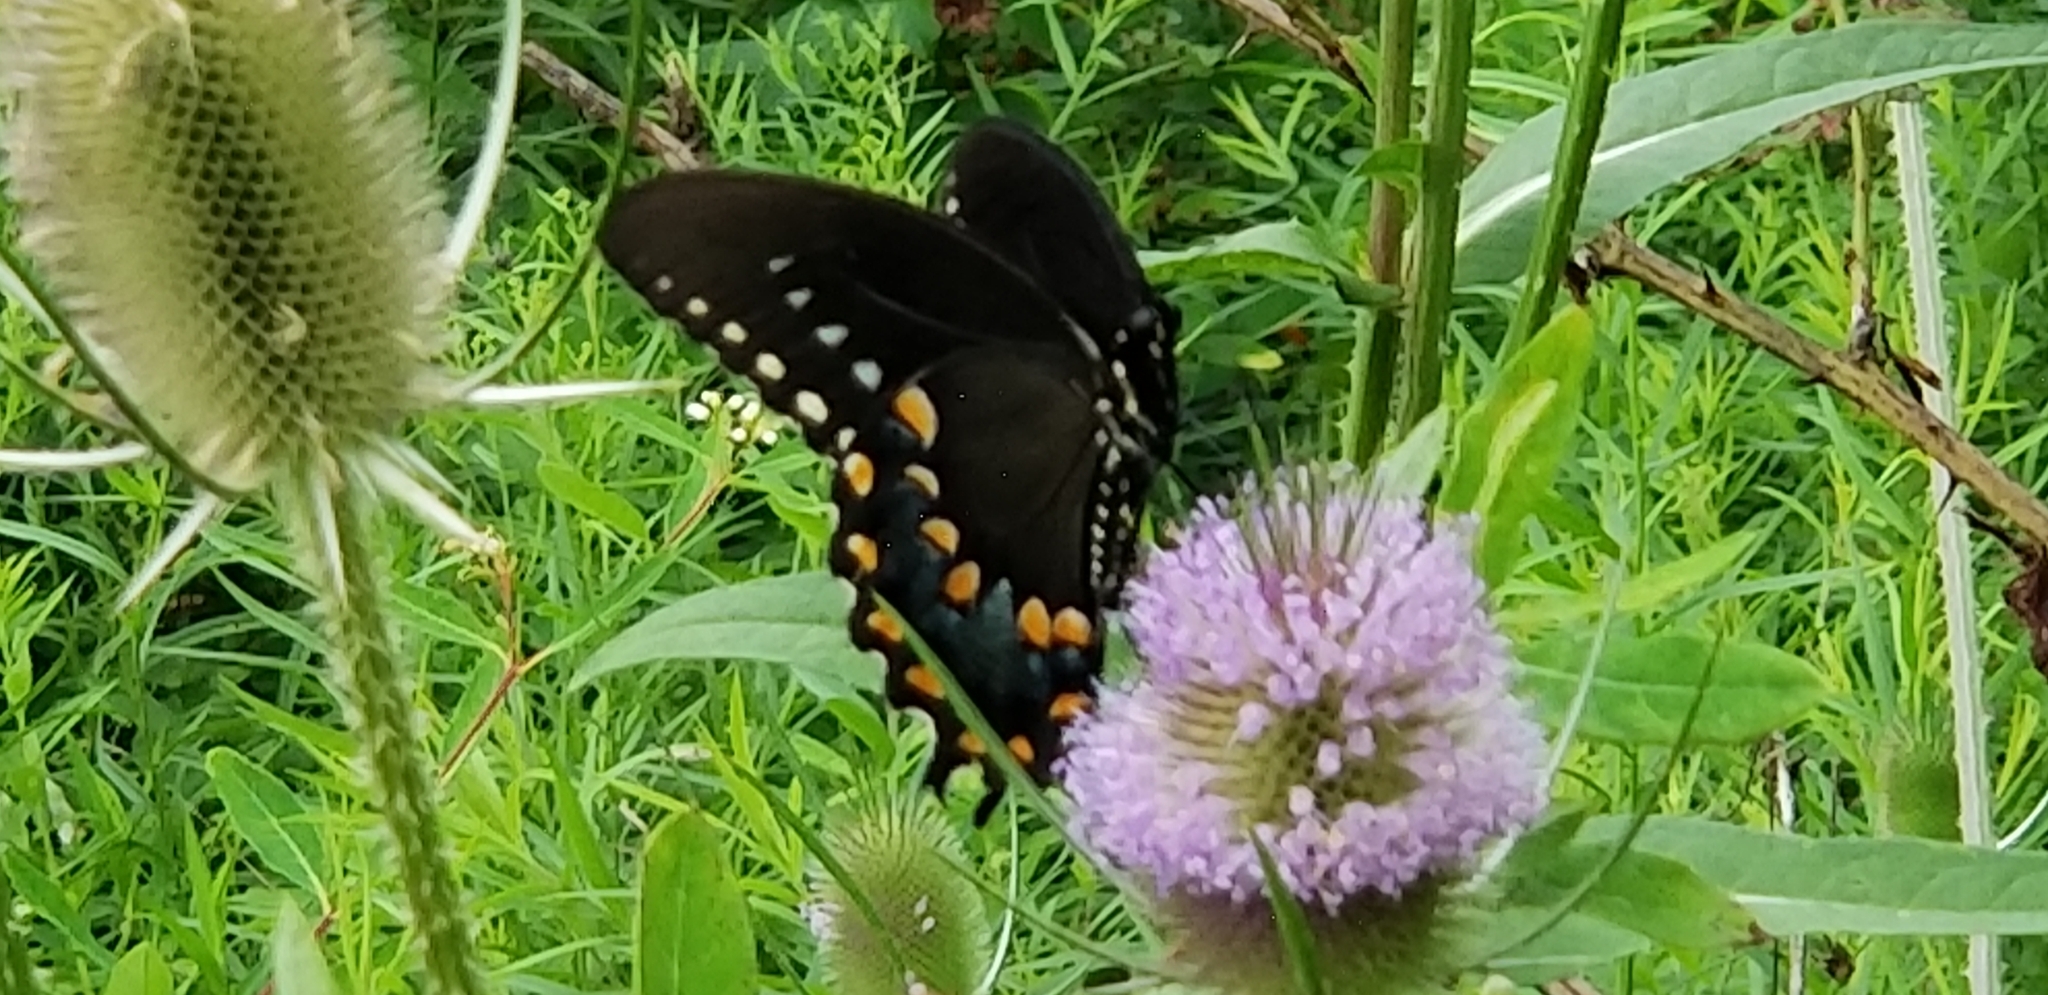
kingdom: Animalia
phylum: Arthropoda
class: Insecta
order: Lepidoptera
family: Papilionidae
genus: Papilio
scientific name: Papilio troilus
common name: Spicebush swallowtail
